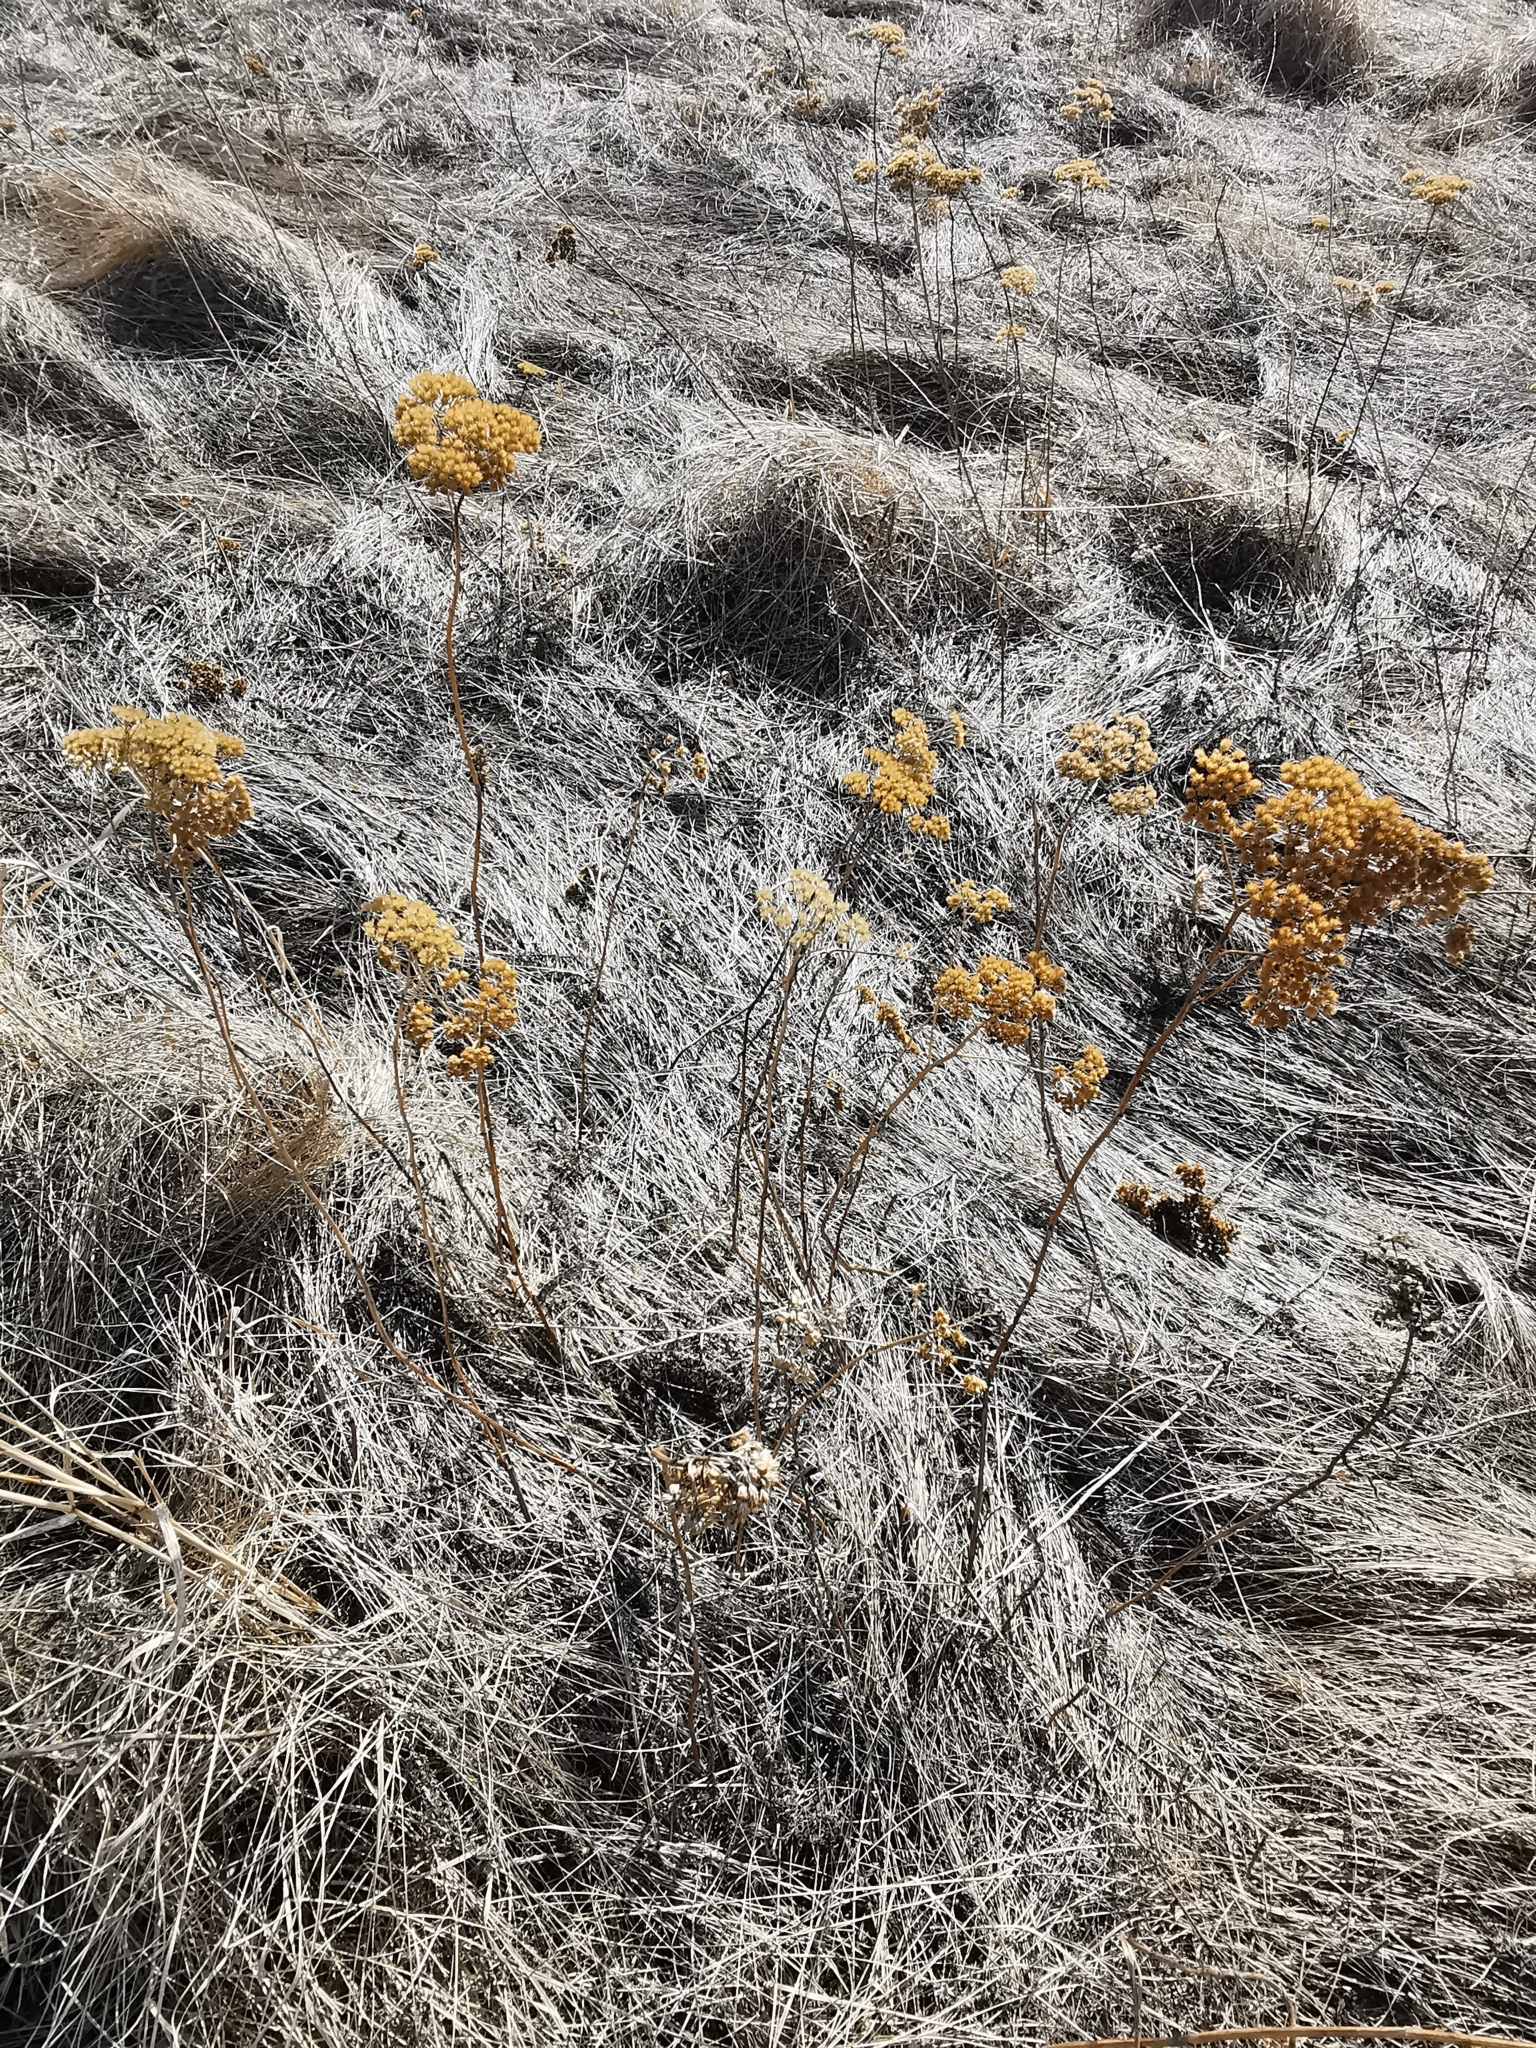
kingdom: Plantae
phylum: Tracheophyta
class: Magnoliopsida
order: Asterales
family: Asteraceae
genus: Achillea
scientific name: Achillea millefolium
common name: Yarrow
